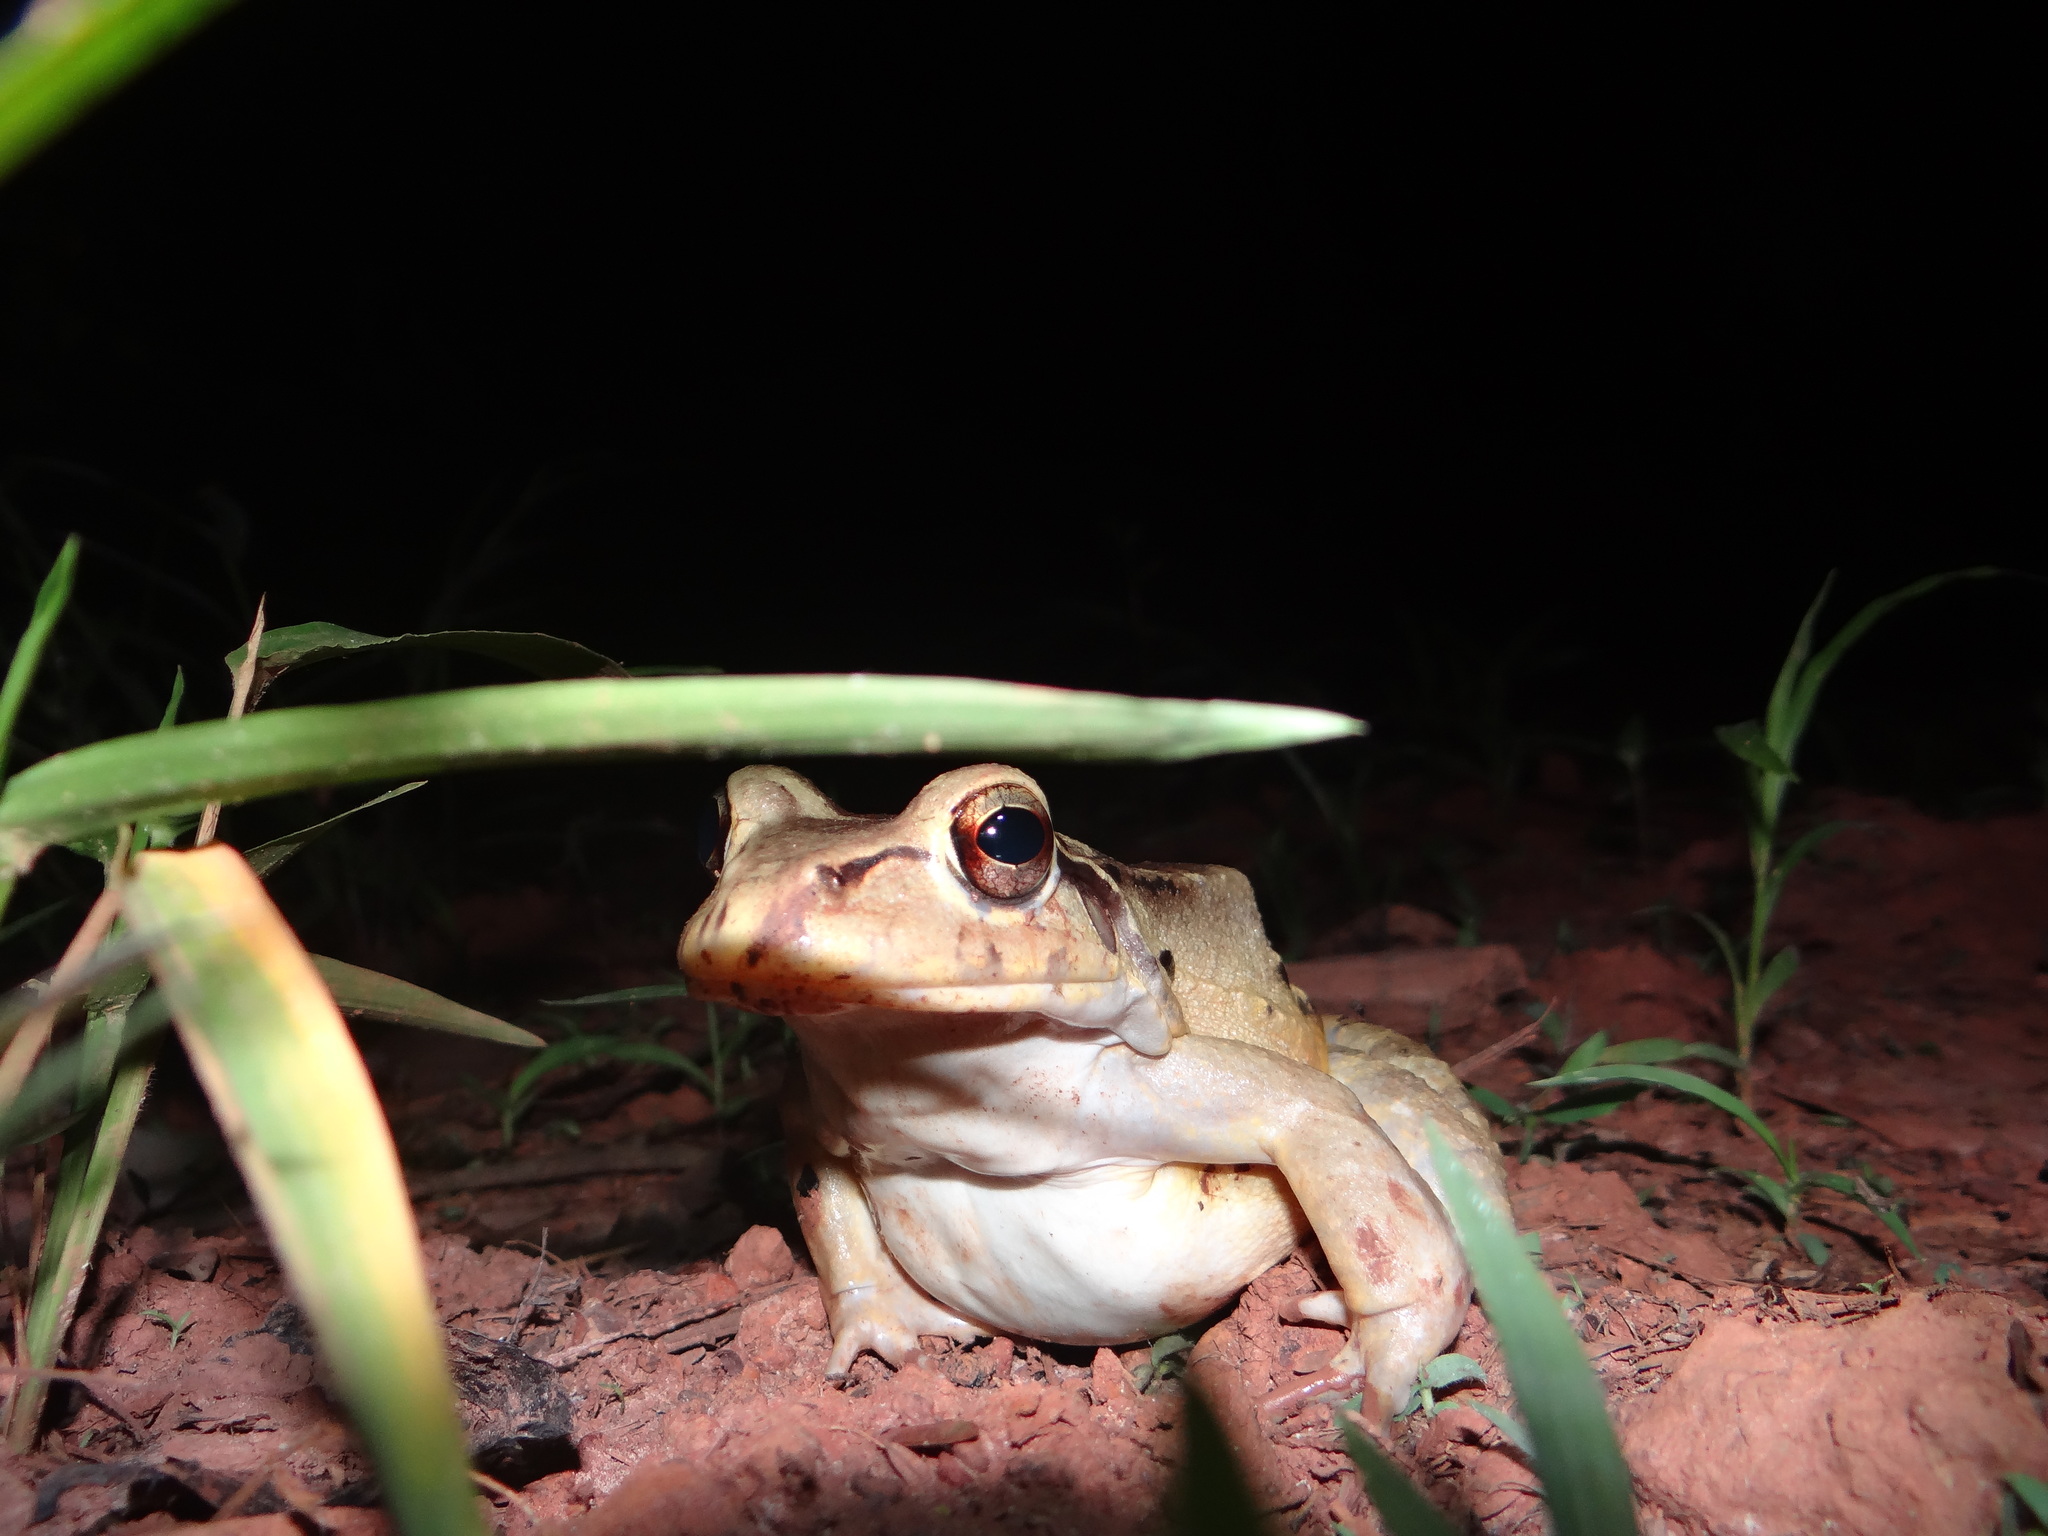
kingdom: Animalia
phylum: Chordata
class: Amphibia
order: Anura
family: Leptodactylidae
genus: Leptodactylus
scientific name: Leptodactylus knudseni
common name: Knudsen's frog
